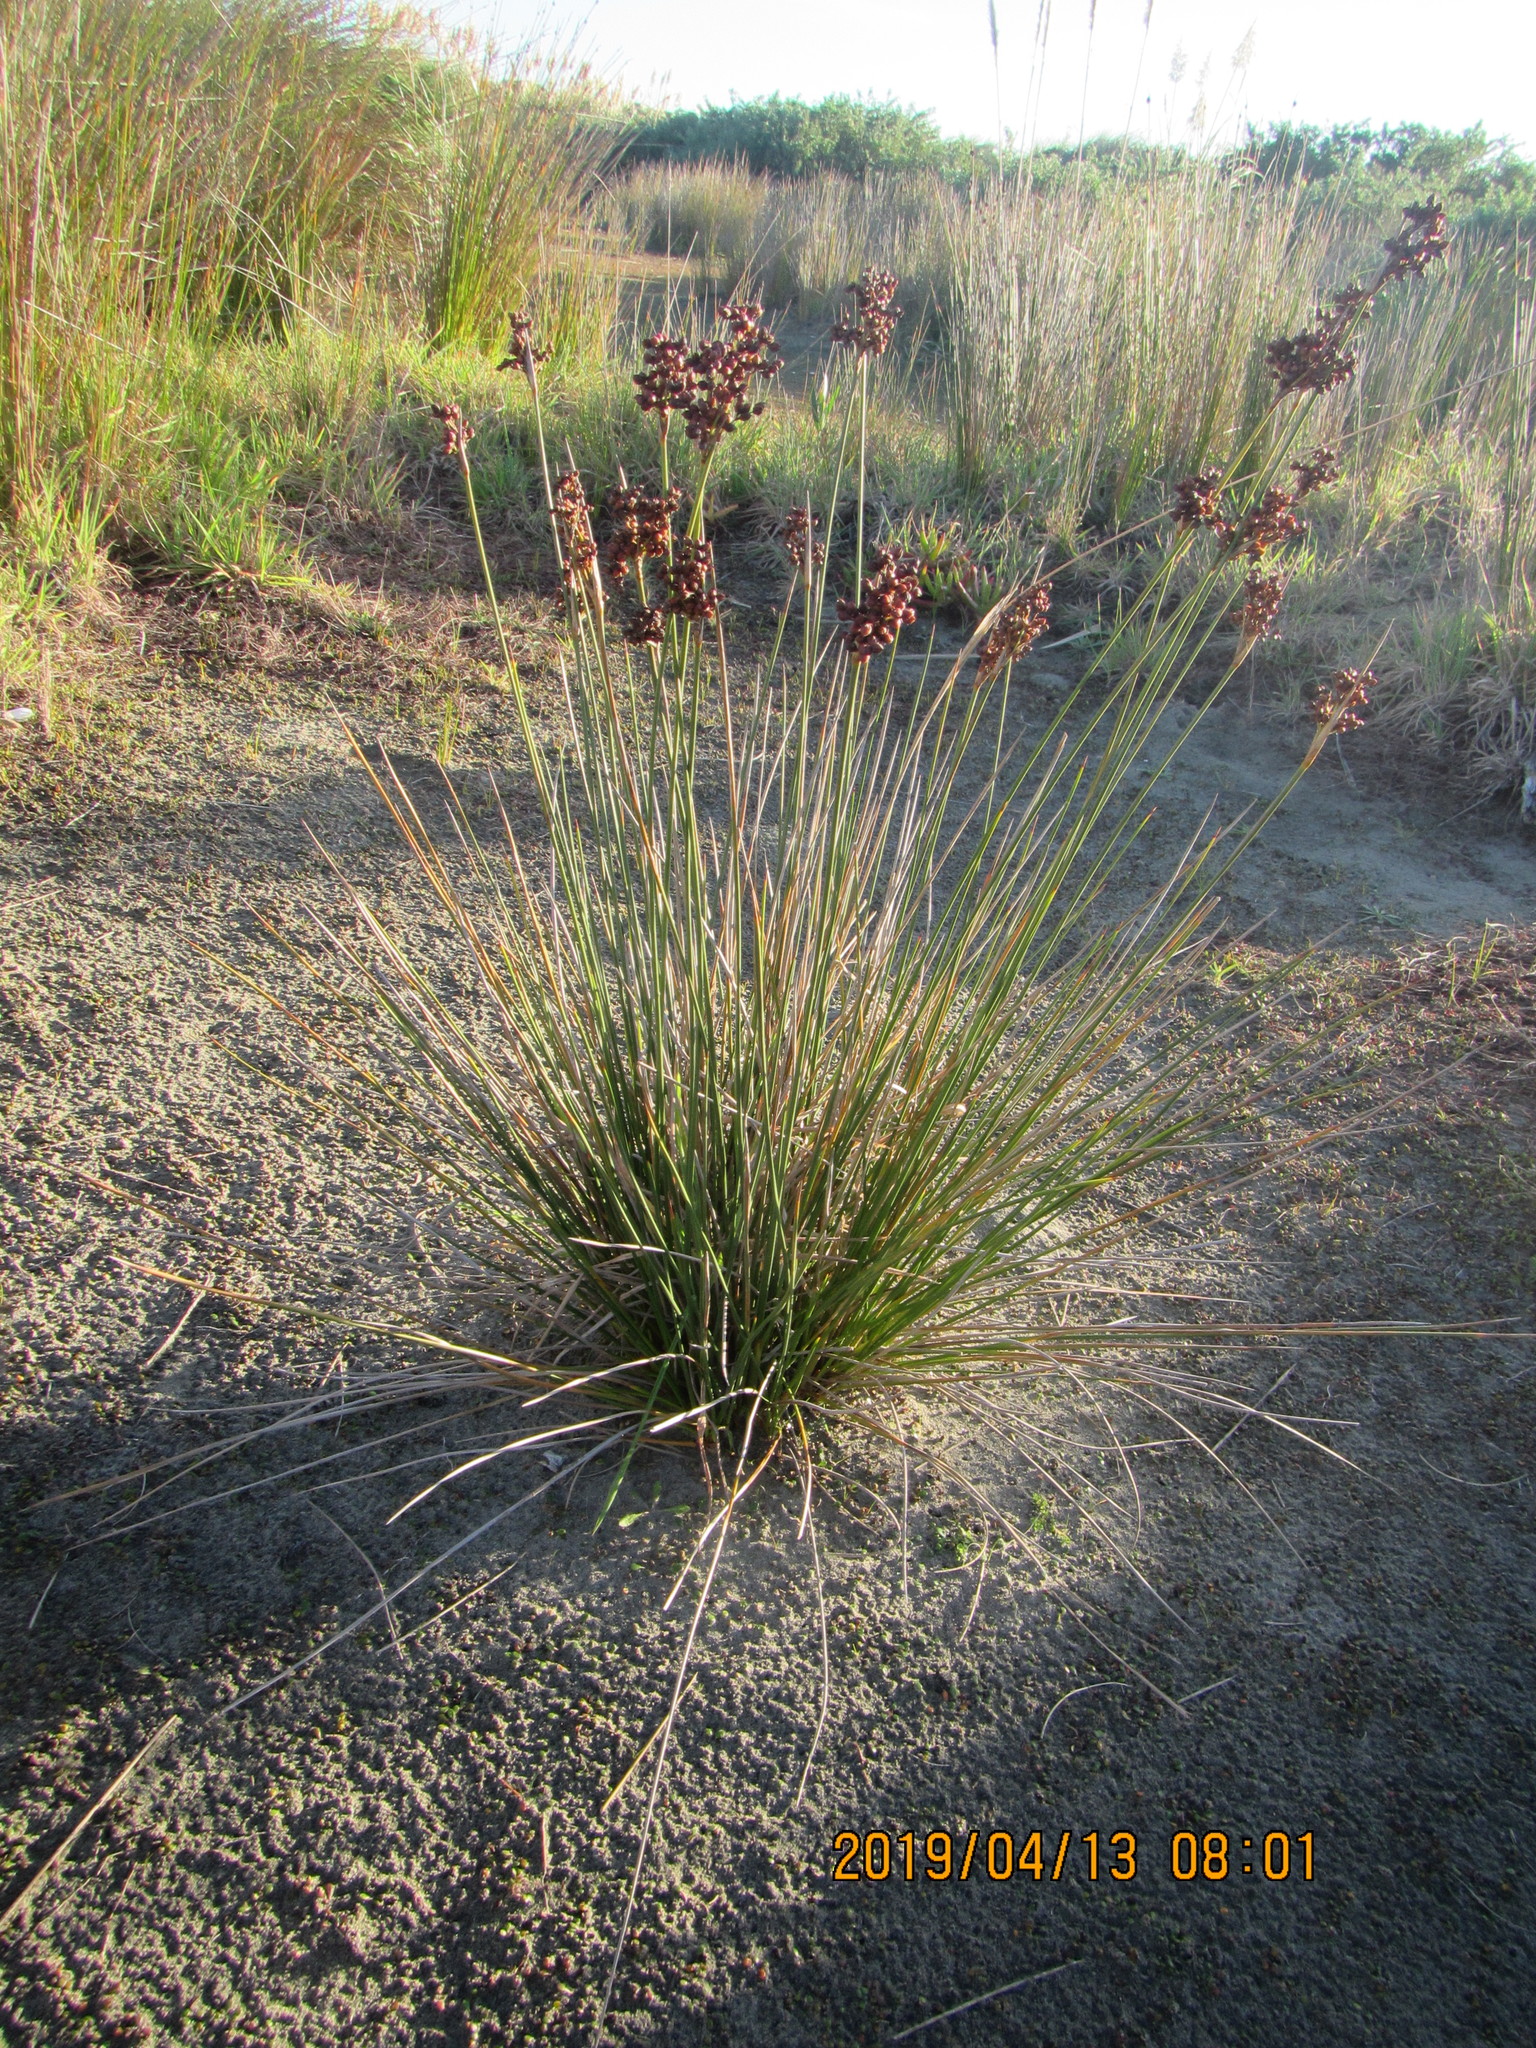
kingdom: Plantae
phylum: Tracheophyta
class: Liliopsida
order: Poales
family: Juncaceae
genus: Juncus
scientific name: Juncus acutus
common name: Sharp rush
